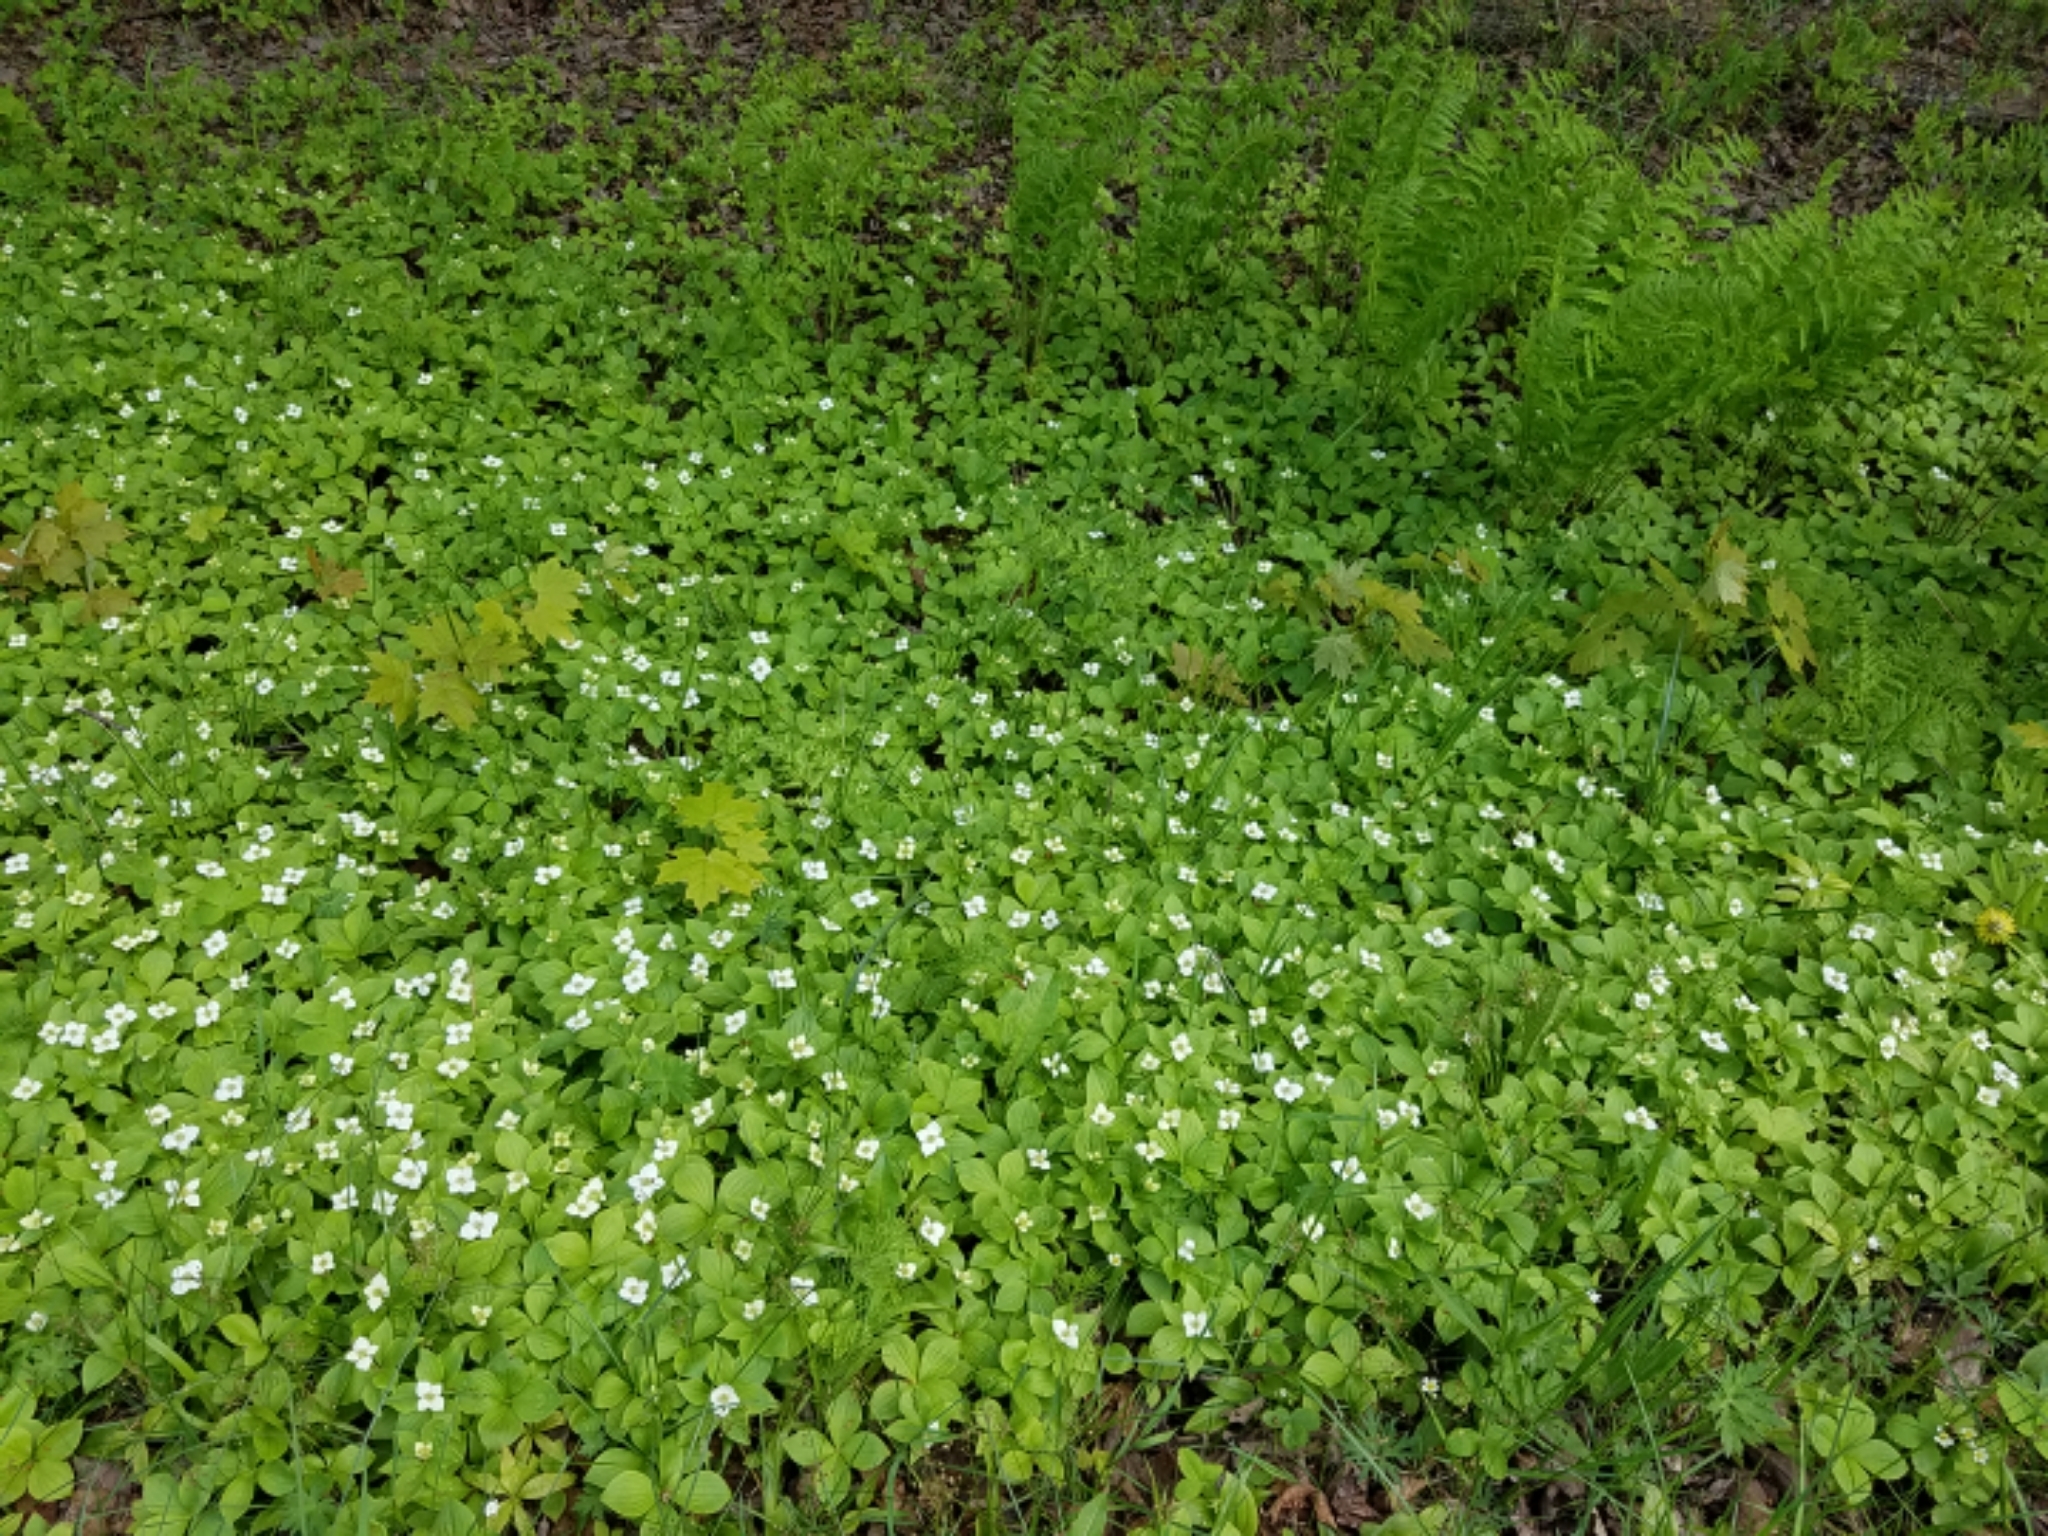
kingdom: Plantae
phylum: Tracheophyta
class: Magnoliopsida
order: Cornales
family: Cornaceae
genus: Cornus
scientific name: Cornus canadensis
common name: Creeping dogwood
